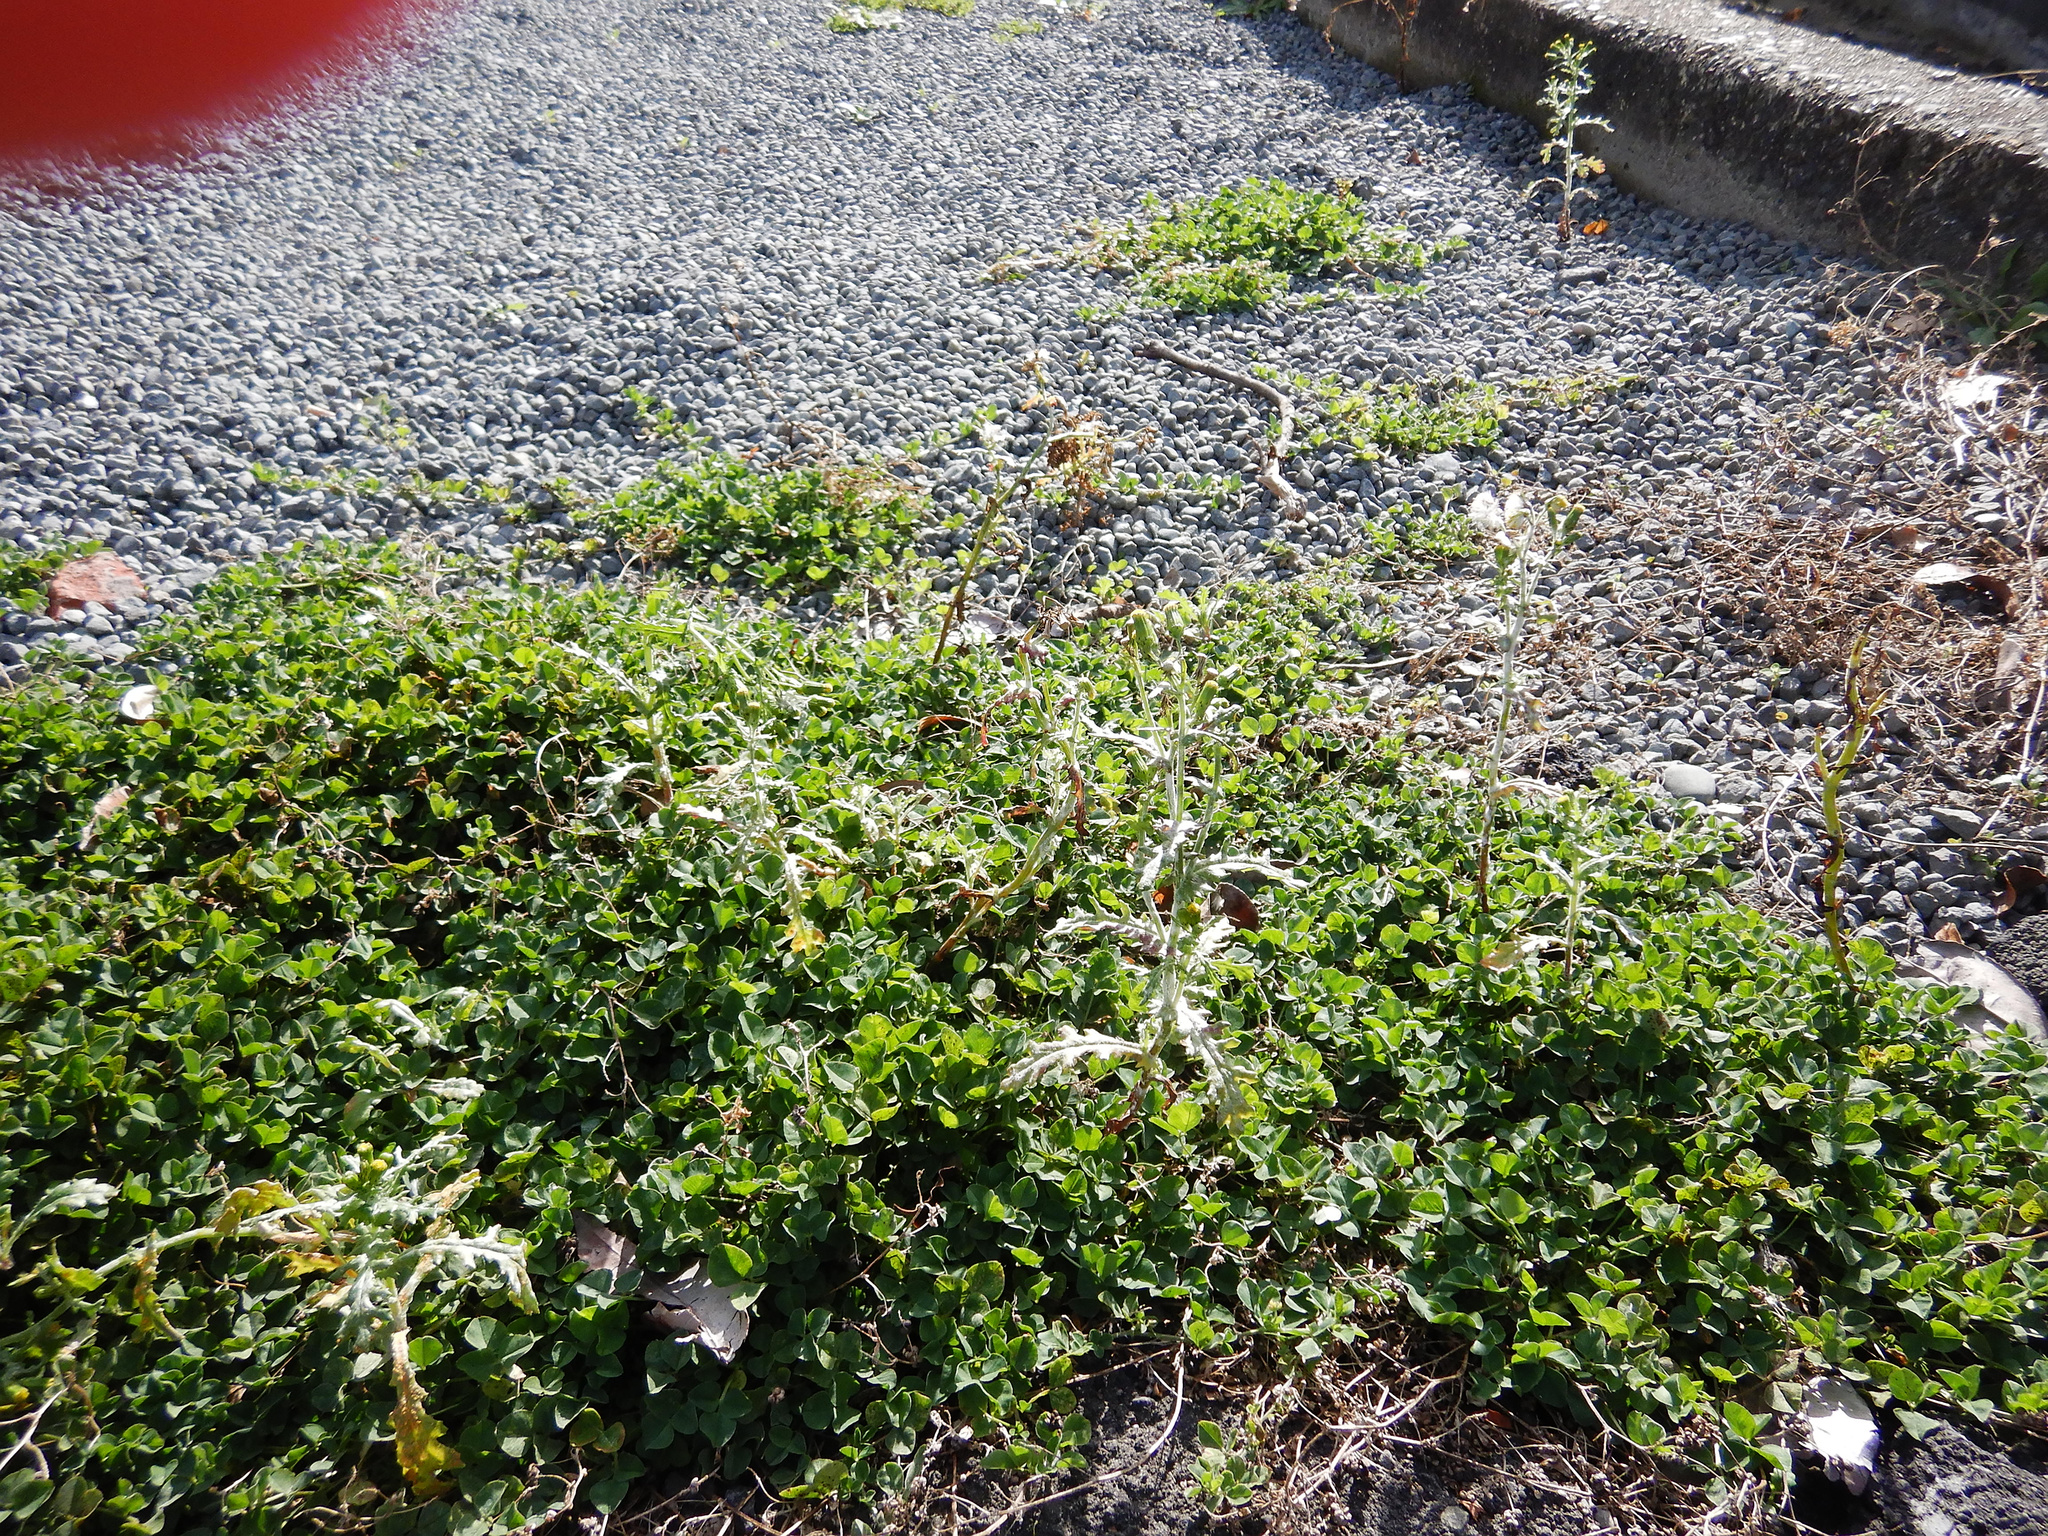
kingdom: Plantae
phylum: Tracheophyta
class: Magnoliopsida
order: Asterales
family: Asteraceae
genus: Senecio
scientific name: Senecio vulgaris
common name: Old-man-in-the-spring
